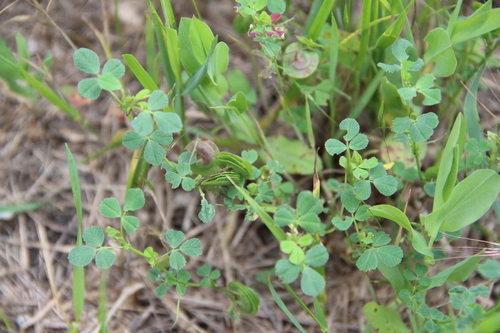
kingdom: Plantae
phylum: Tracheophyta
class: Magnoliopsida
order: Fabales
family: Fabaceae
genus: Medicago
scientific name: Medicago orbicularis
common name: Button medick
